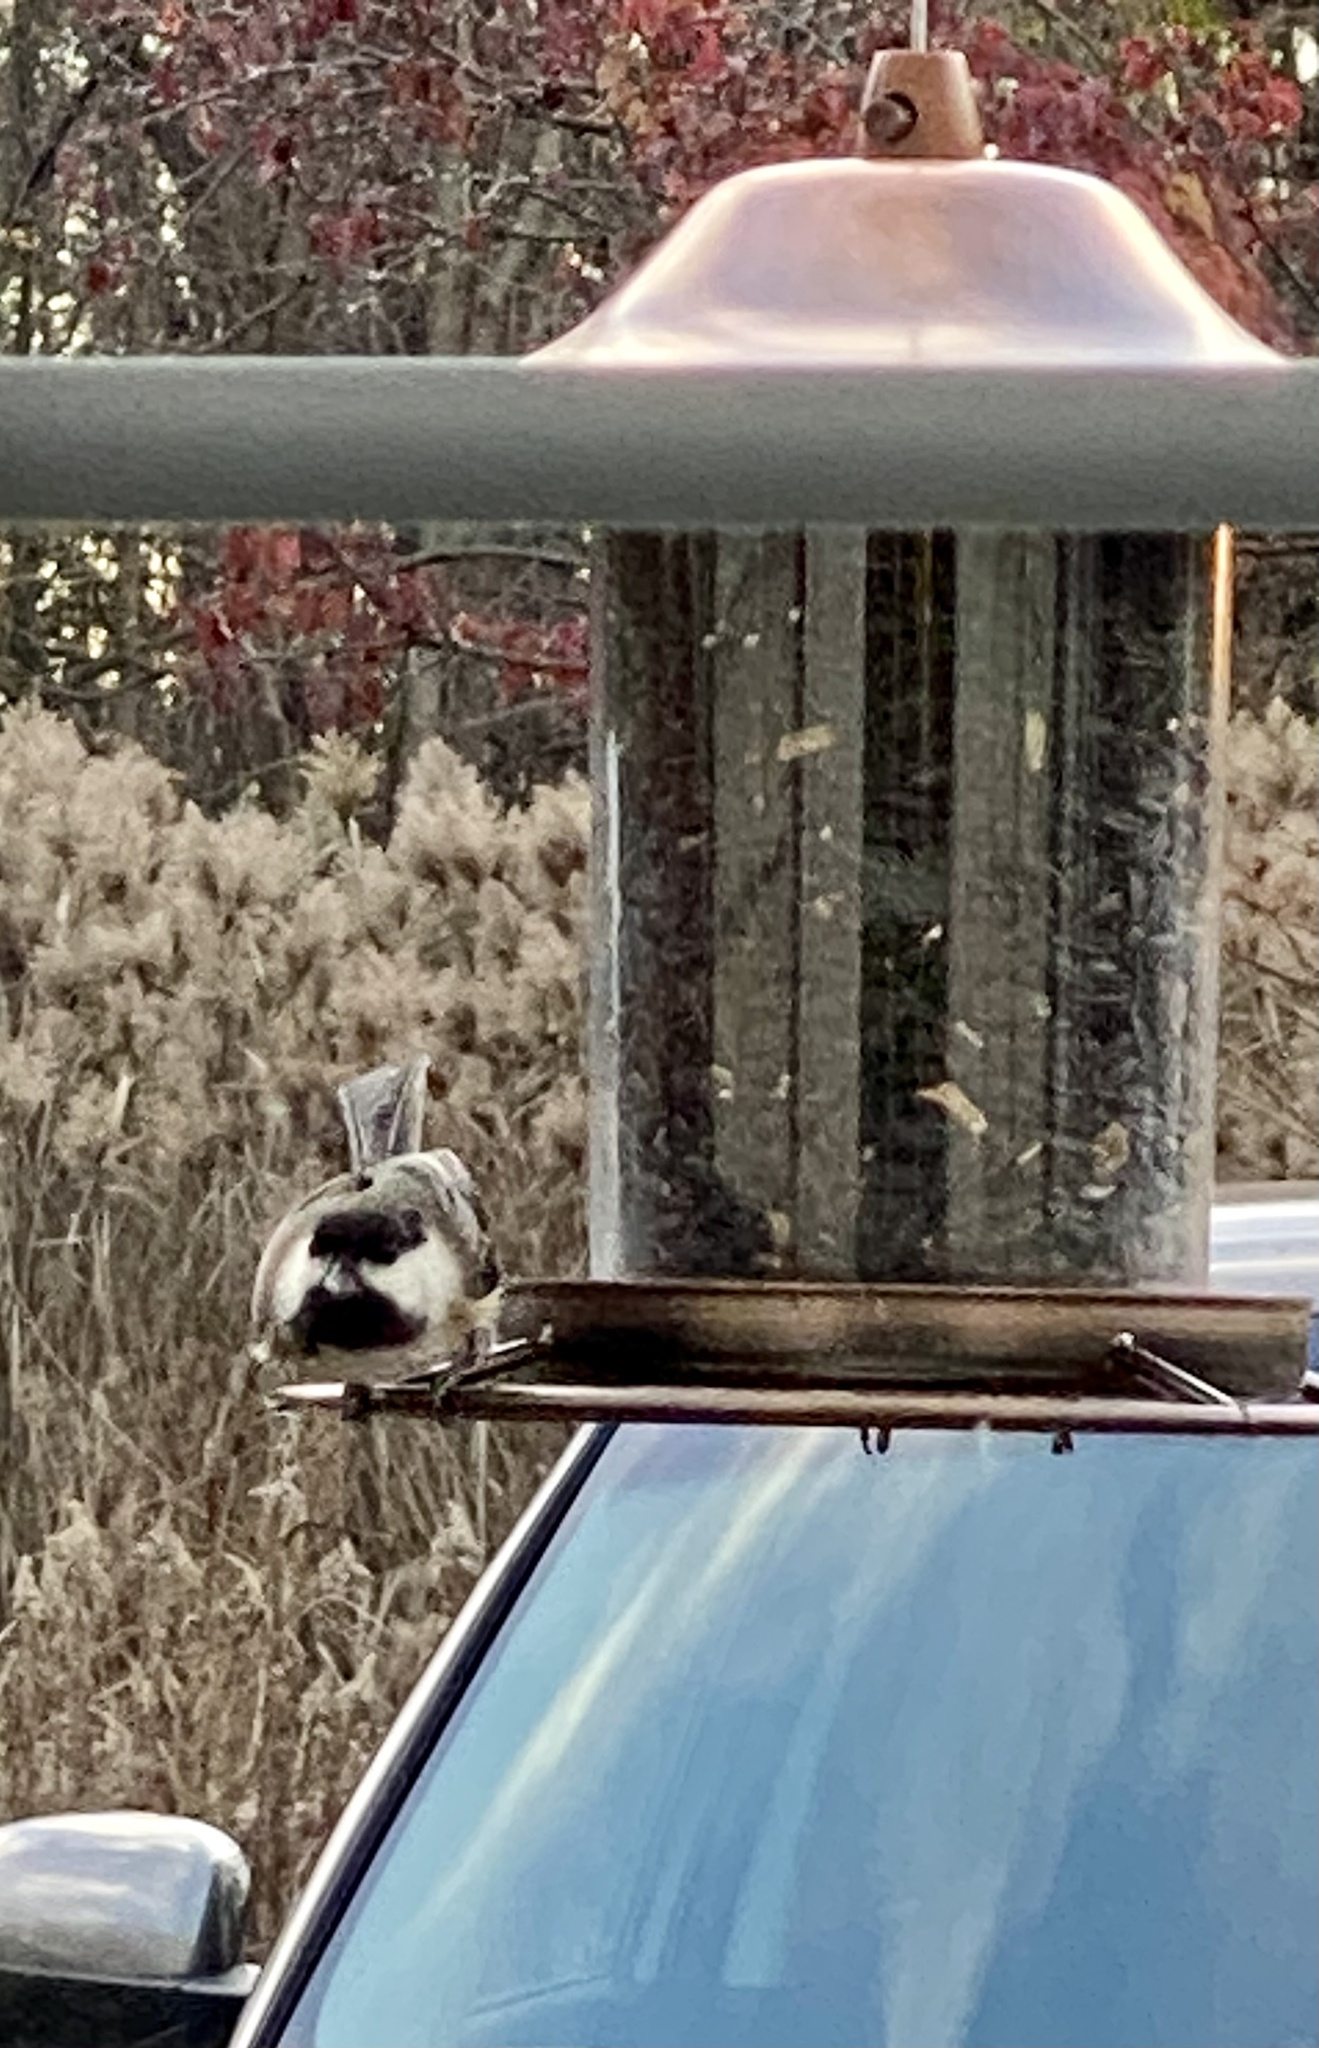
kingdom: Animalia
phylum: Chordata
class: Aves
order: Passeriformes
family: Paridae
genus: Poecile
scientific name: Poecile atricapillus
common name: Black-capped chickadee
